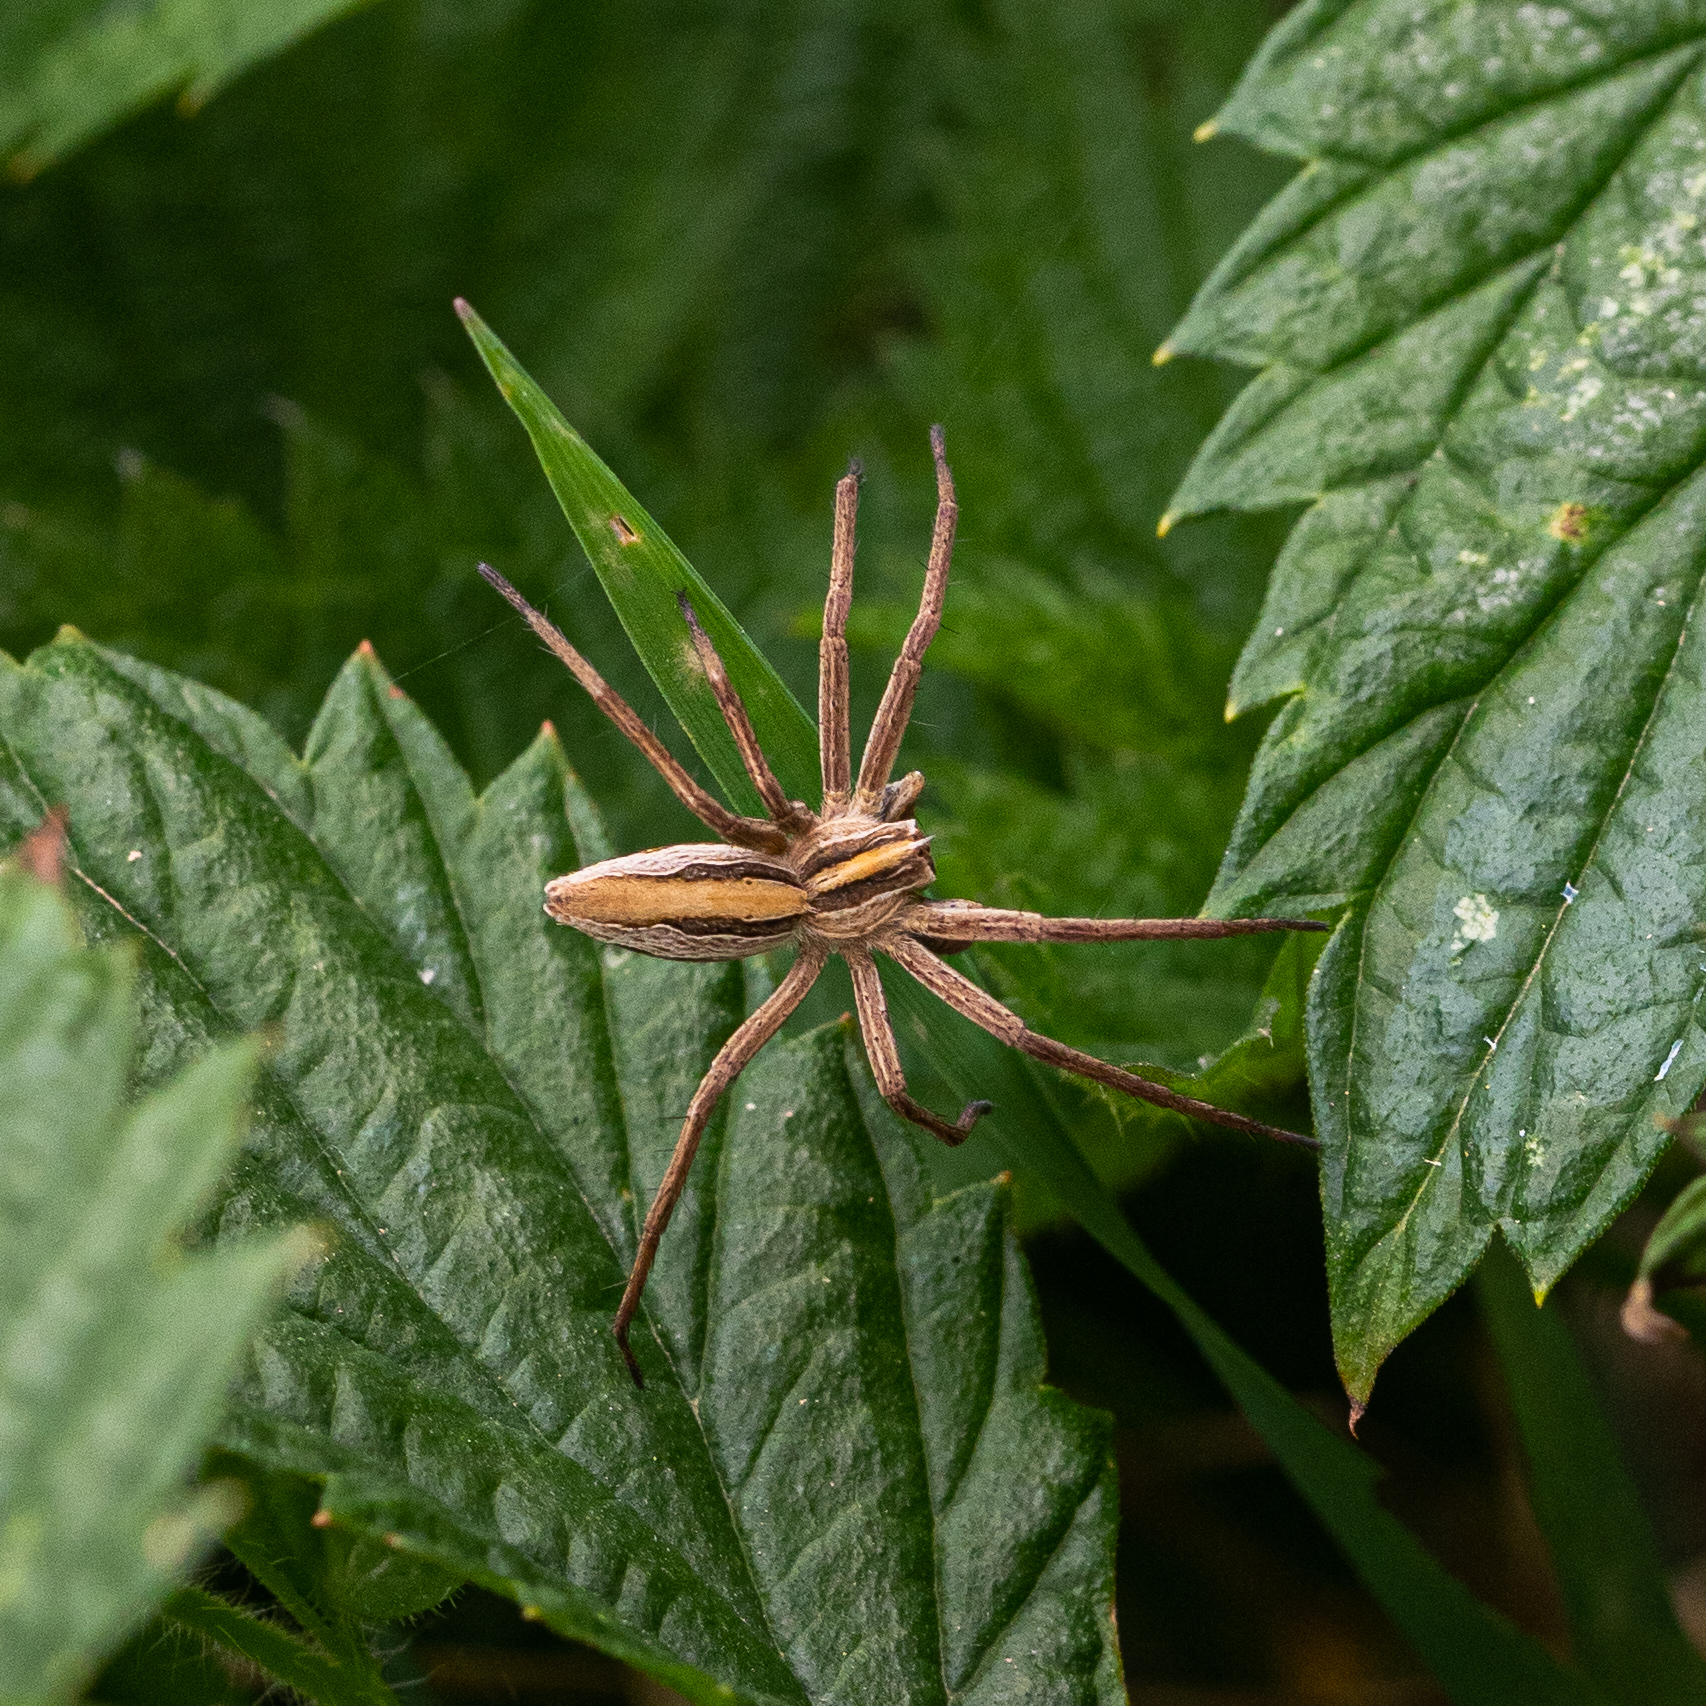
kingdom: Animalia
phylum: Arthropoda
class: Arachnida
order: Araneae
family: Pisauridae
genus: Pisaura
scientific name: Pisaura mirabilis
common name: Tent spider
